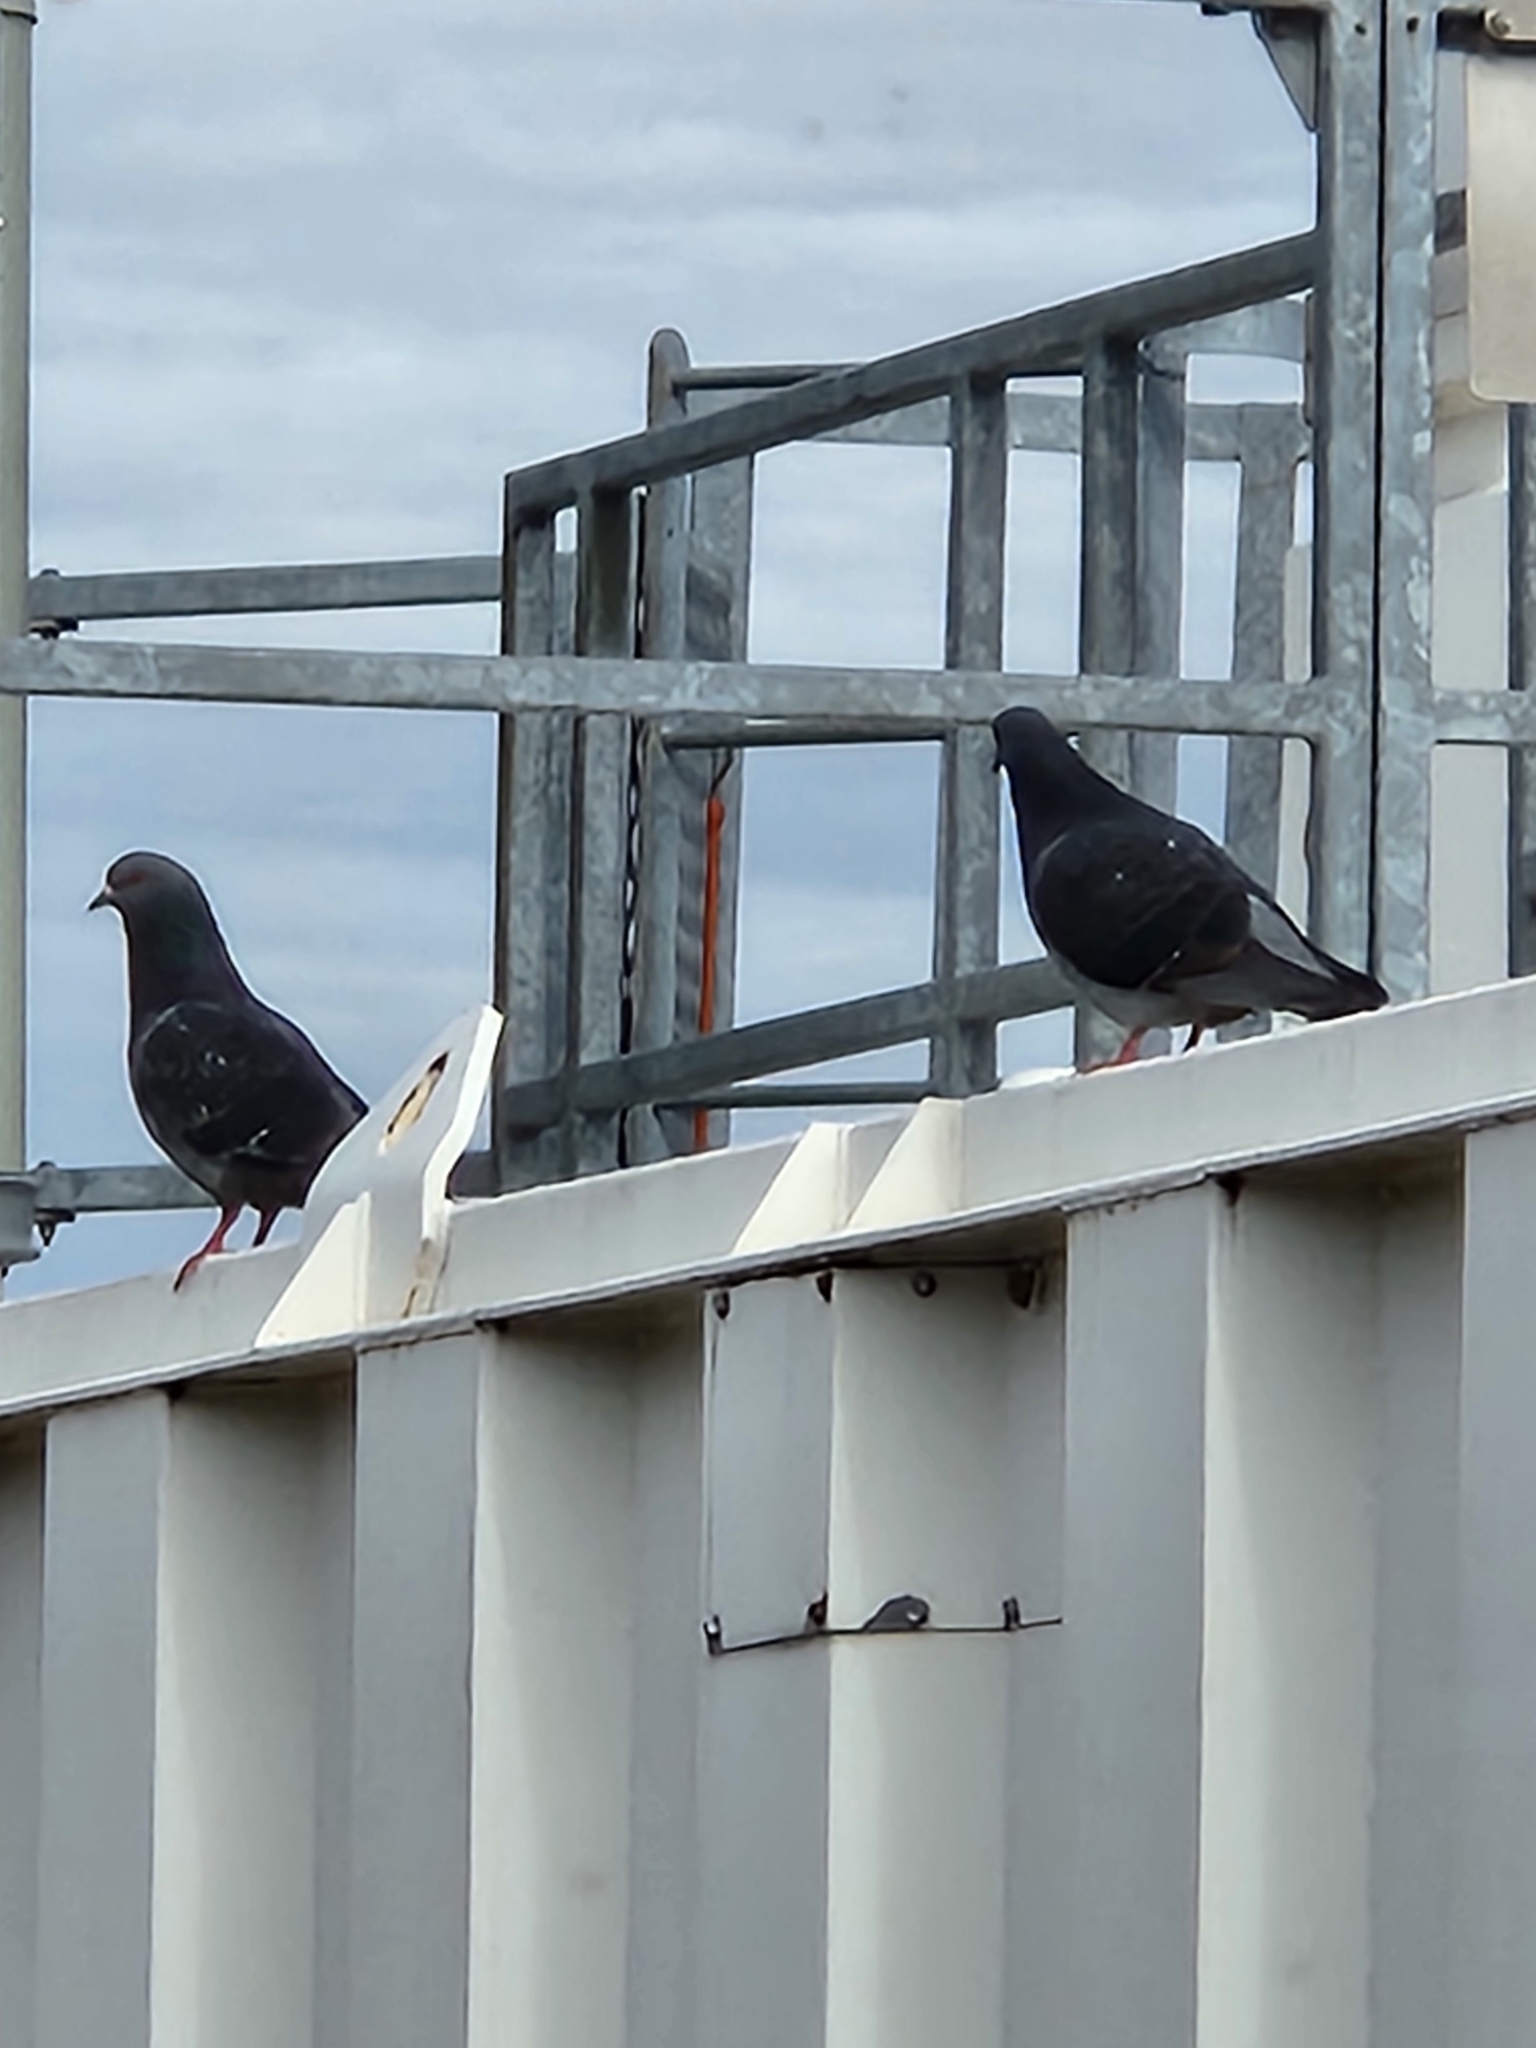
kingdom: Animalia
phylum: Chordata
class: Aves
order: Columbiformes
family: Columbidae
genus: Columba
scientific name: Columba livia
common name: Rock pigeon
